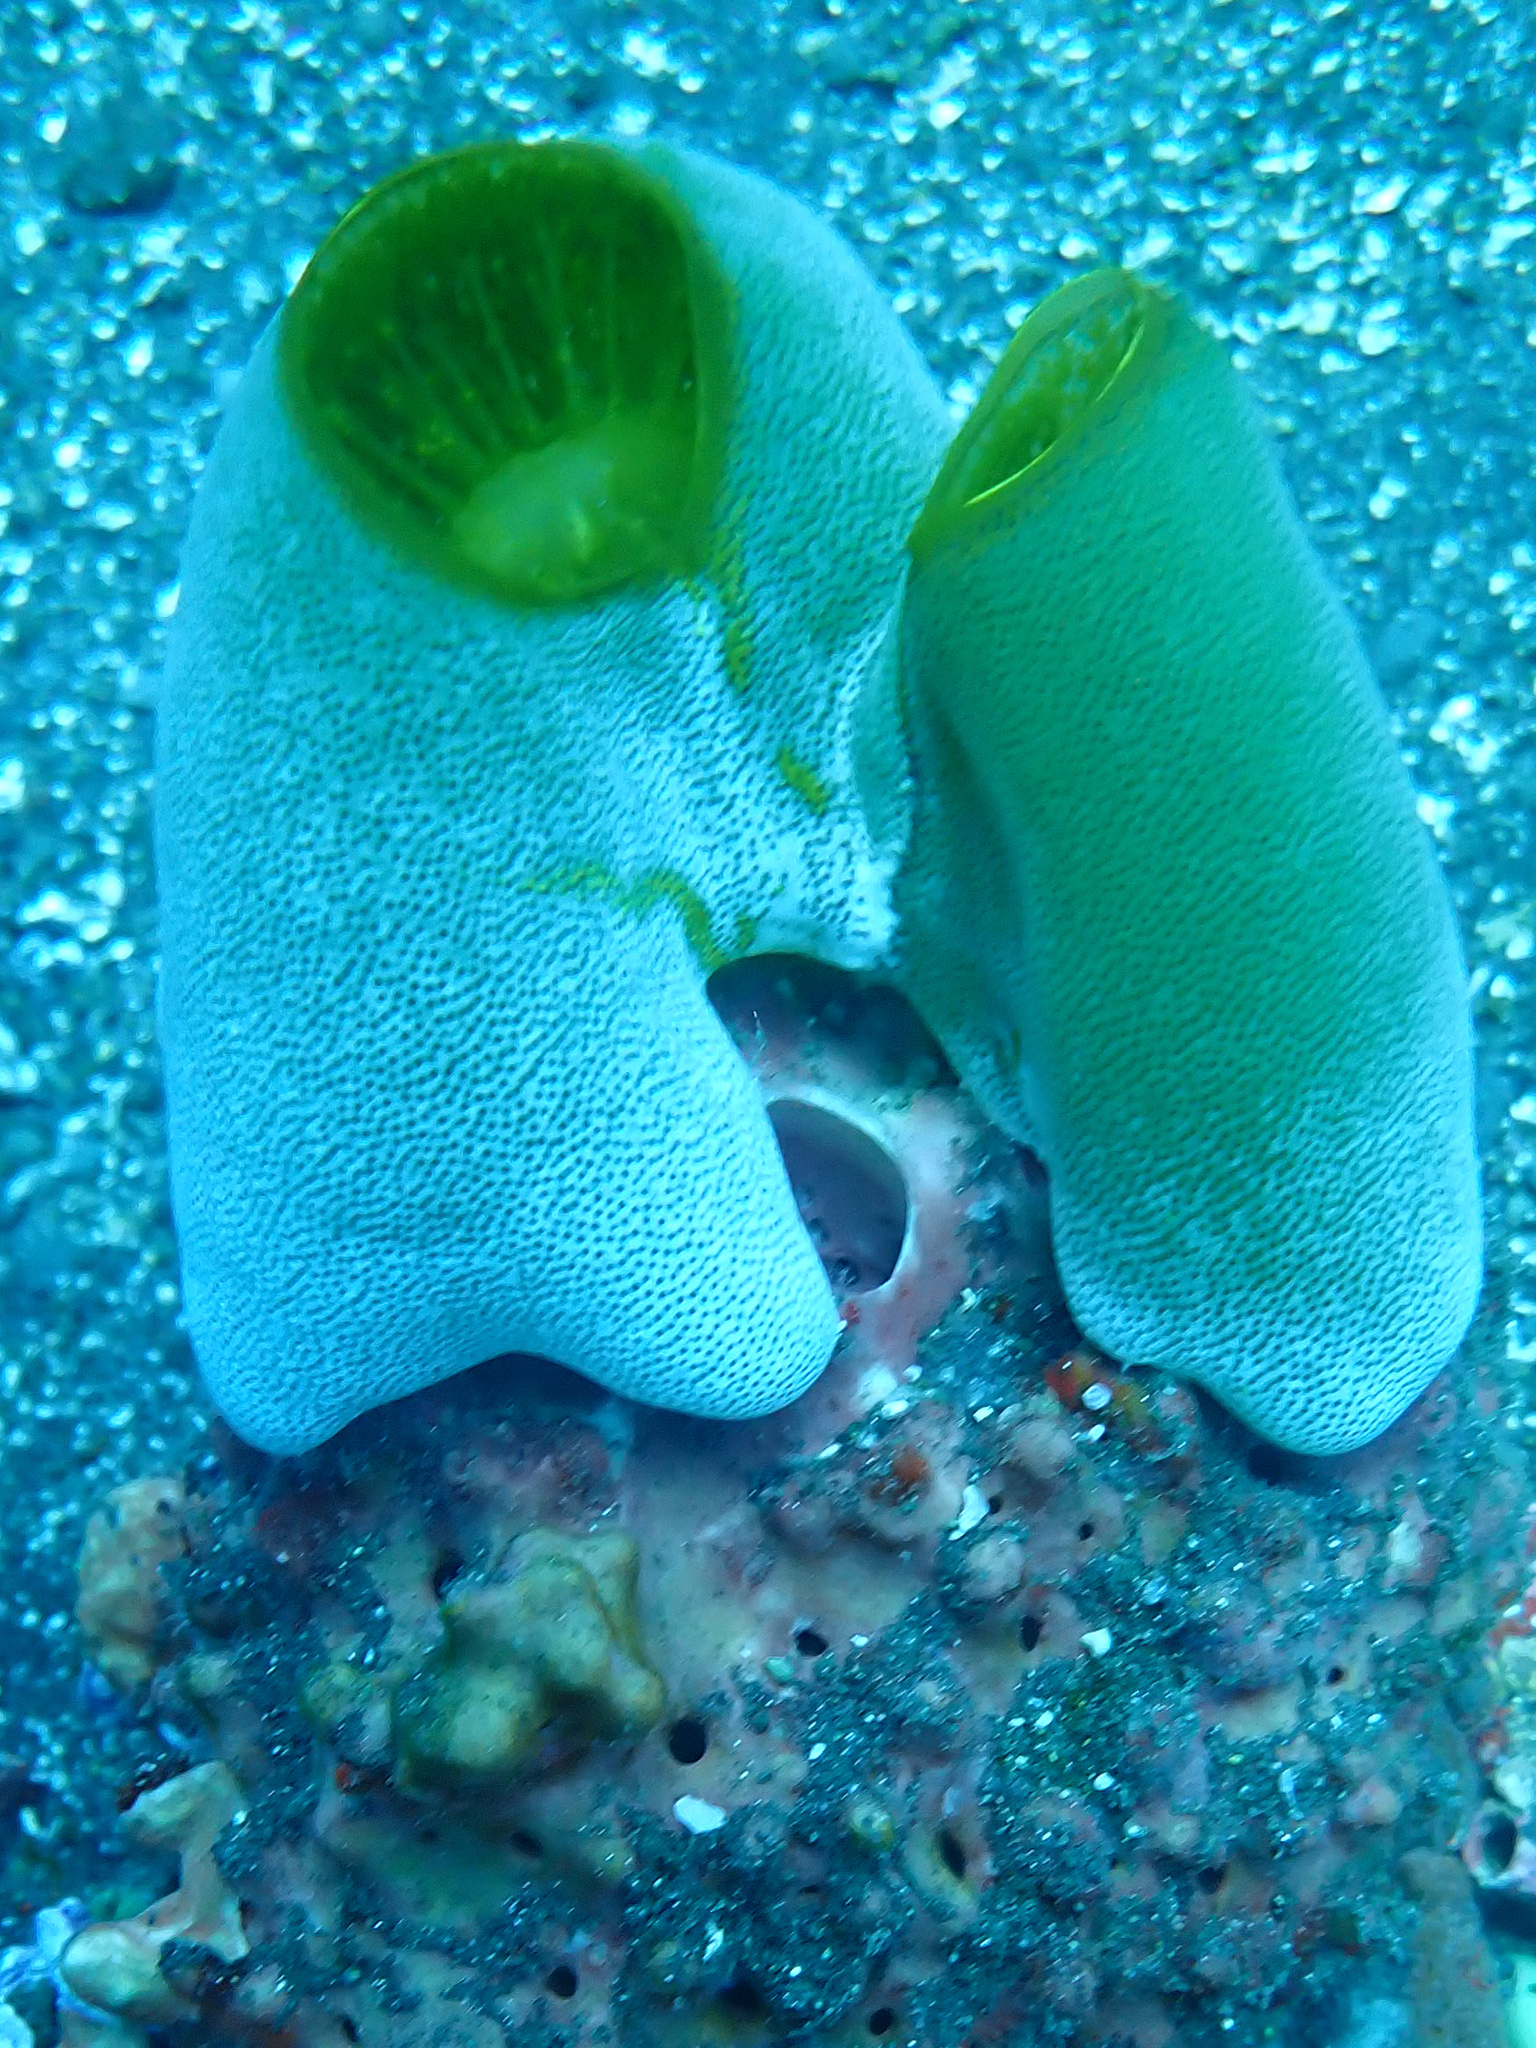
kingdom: Animalia
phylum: Chordata
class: Ascidiacea
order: Aplousobranchia
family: Didemnidae
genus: Didemnum
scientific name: Didemnum molle
